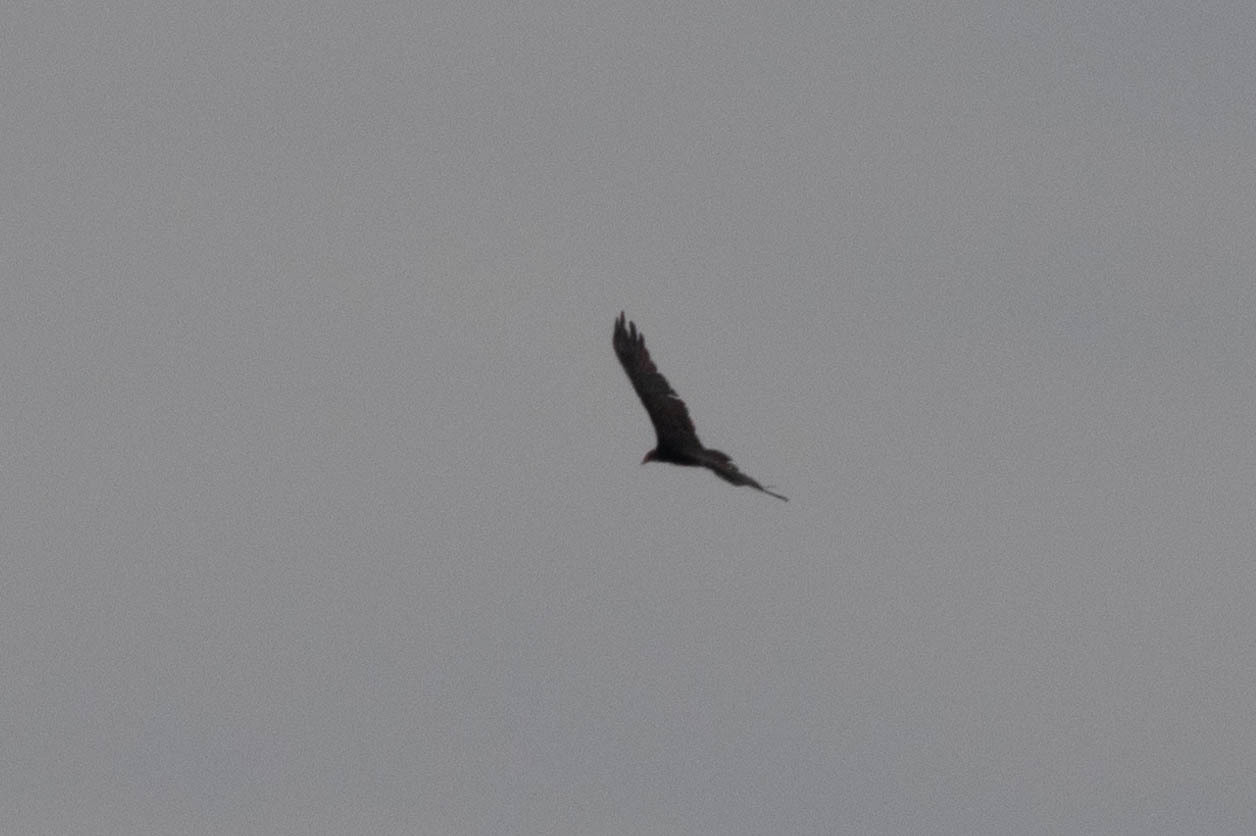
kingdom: Animalia
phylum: Chordata
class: Aves
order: Accipitriformes
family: Cathartidae
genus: Cathartes
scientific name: Cathartes aura
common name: Turkey vulture
